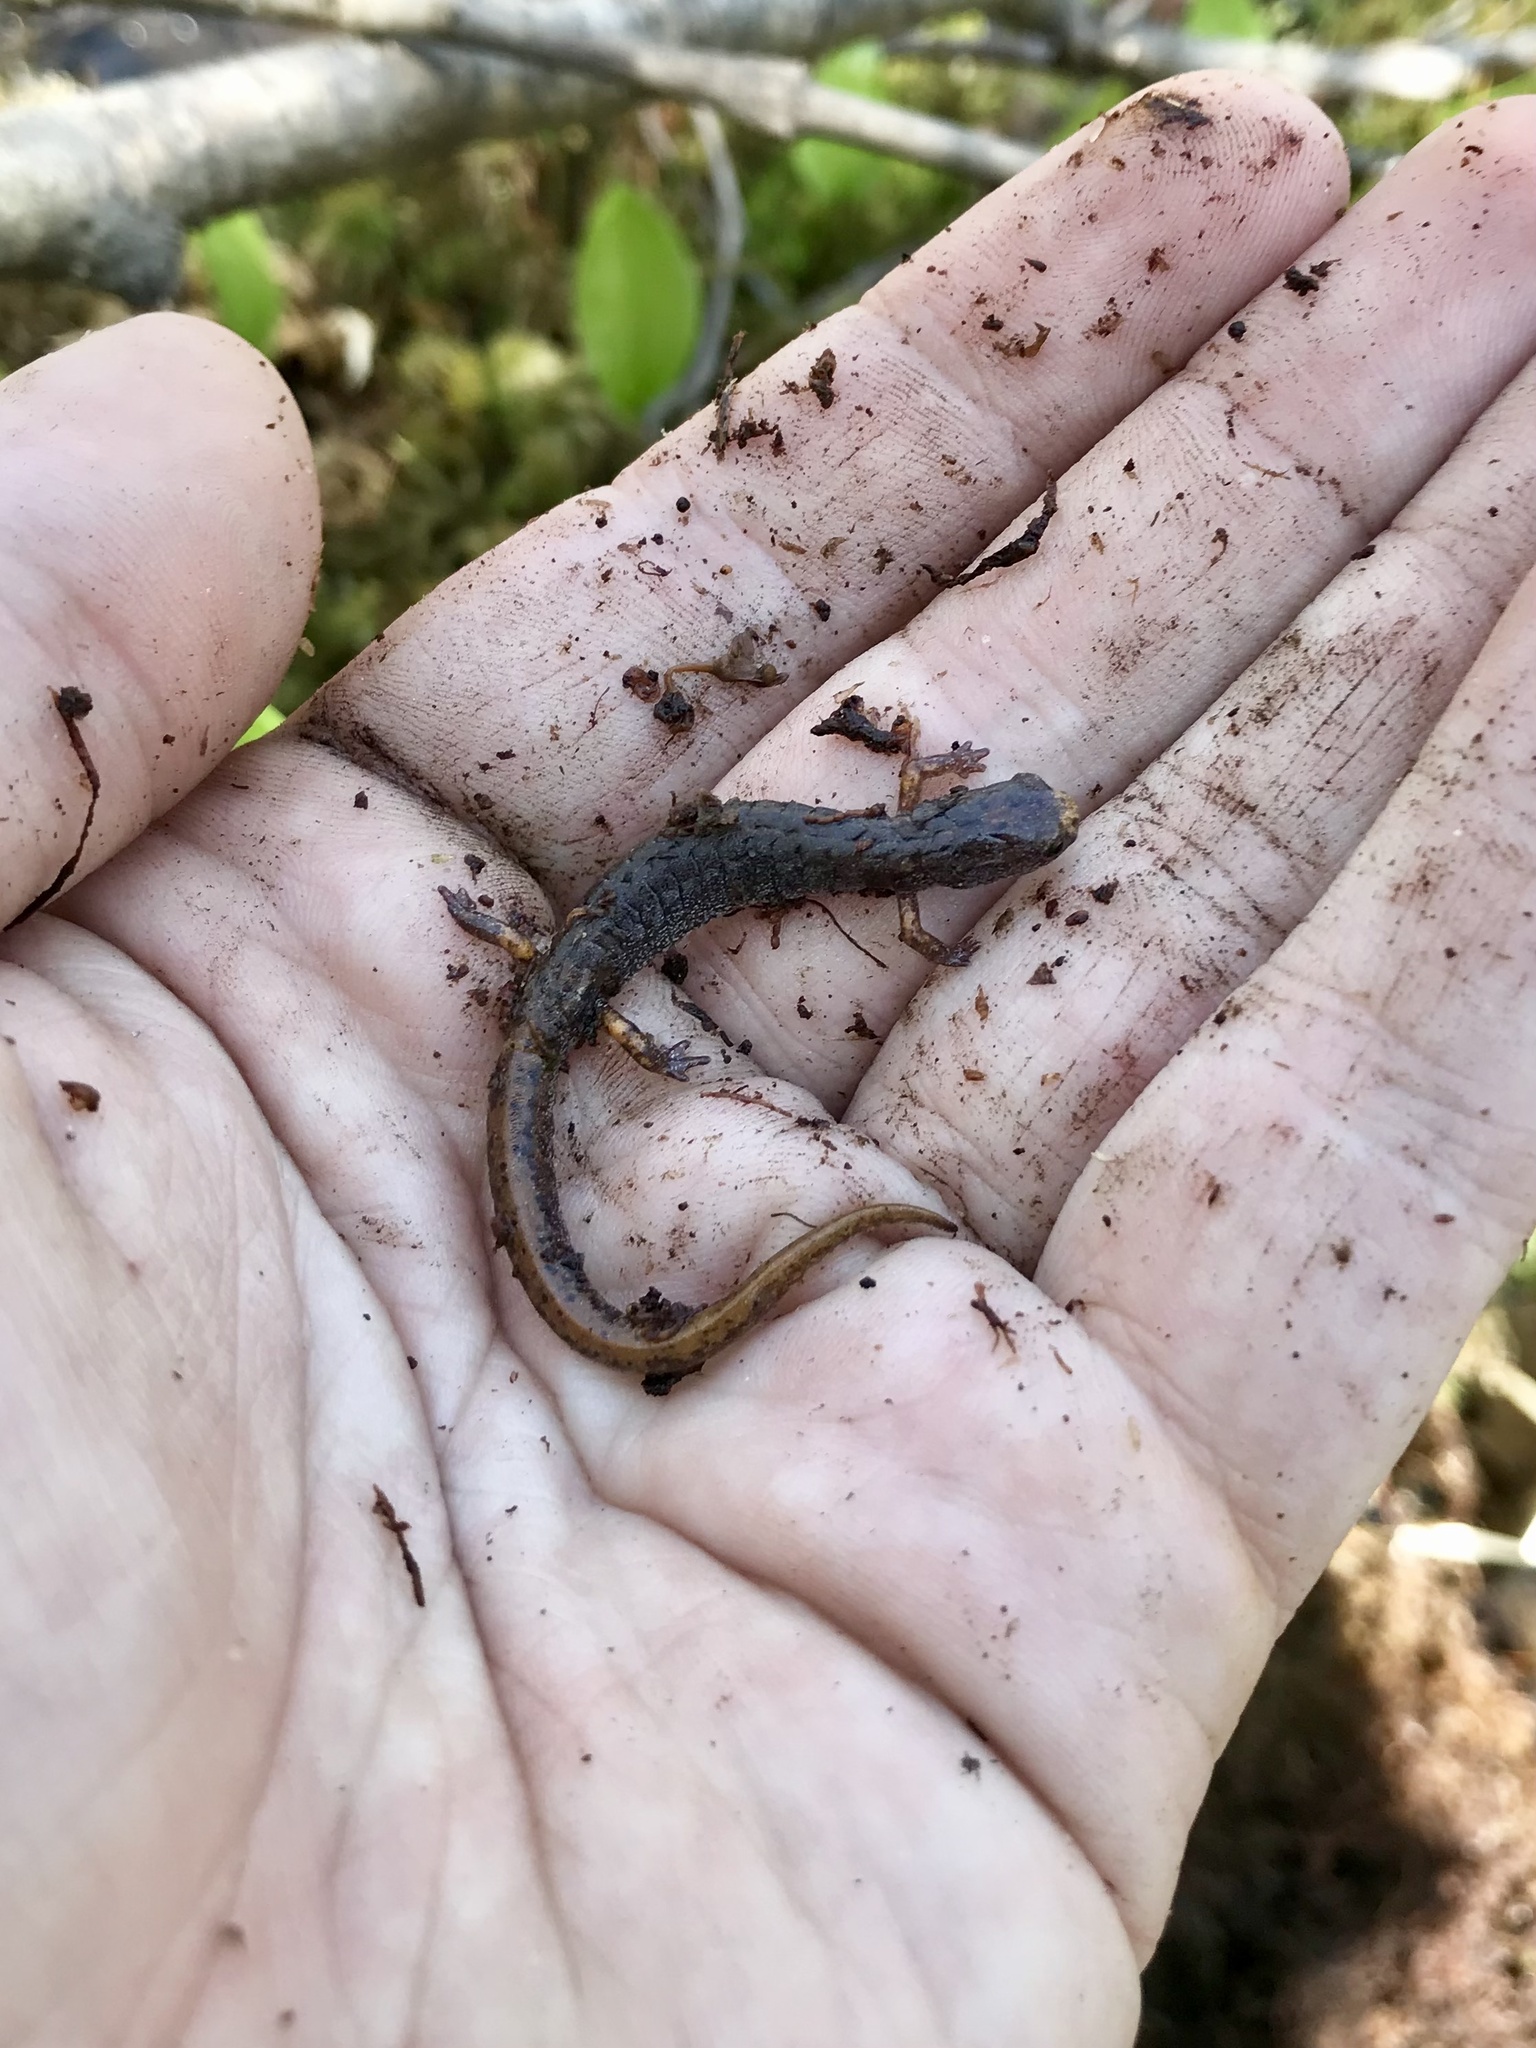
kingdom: Animalia
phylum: Chordata
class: Amphibia
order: Caudata
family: Plethodontidae
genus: Hemidactylium
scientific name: Hemidactylium scutatum
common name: Four-toed salamander
